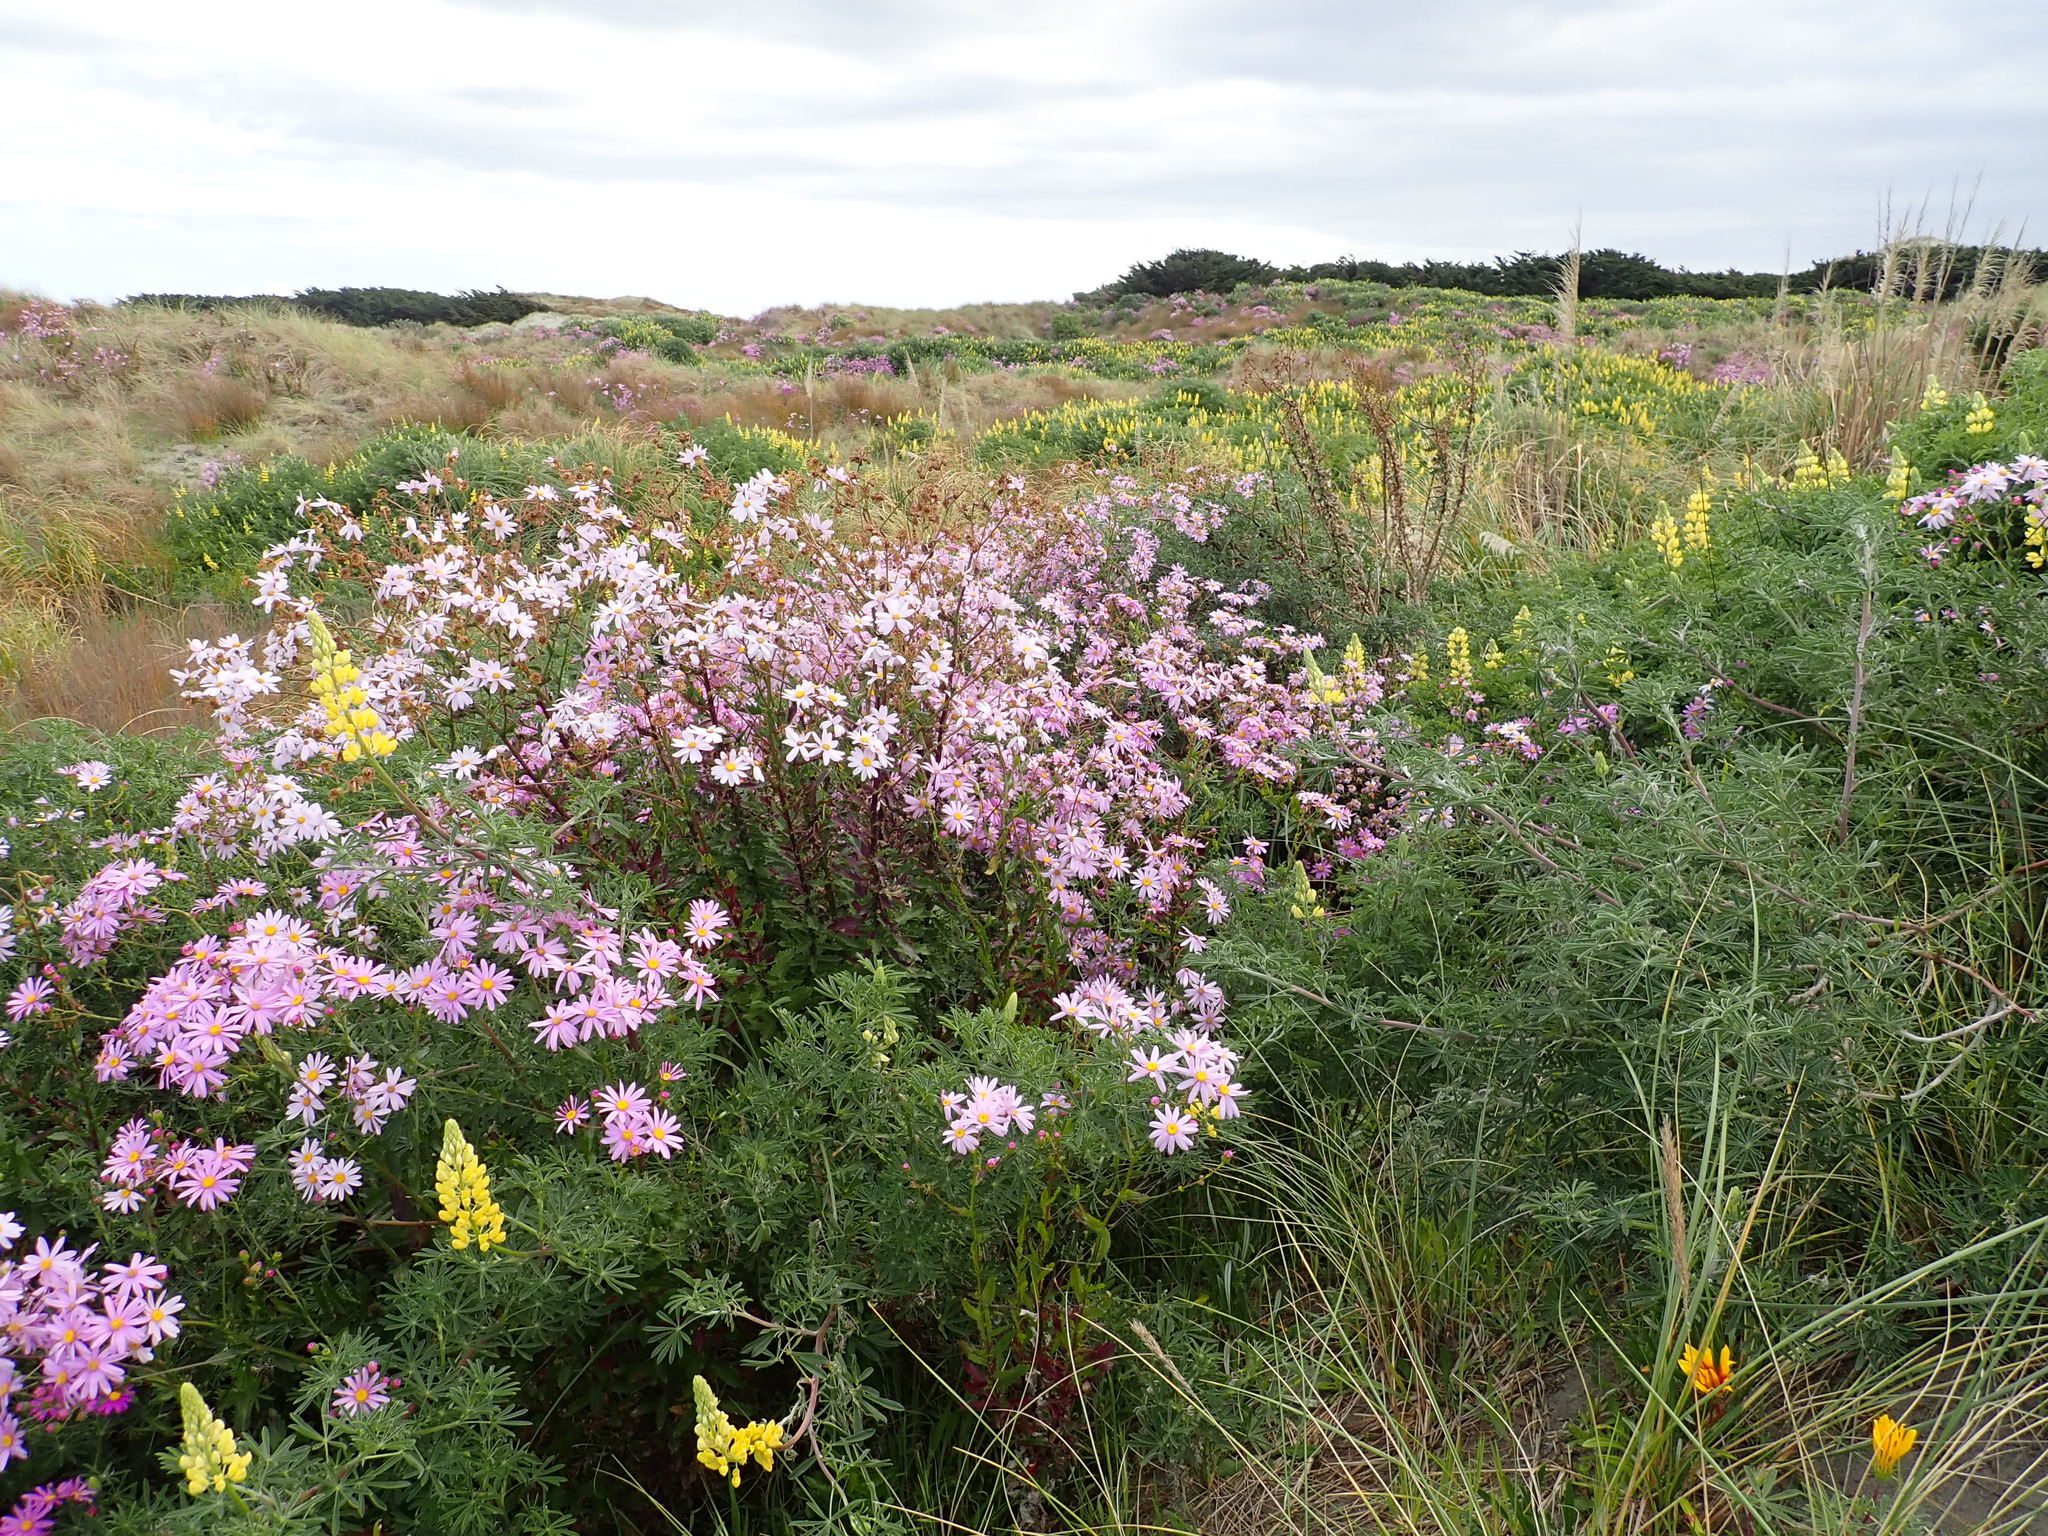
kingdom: Plantae
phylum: Tracheophyta
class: Magnoliopsida
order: Asterales
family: Asteraceae
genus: Senecio
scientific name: Senecio glastifolius
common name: Woad-leaved ragwort
